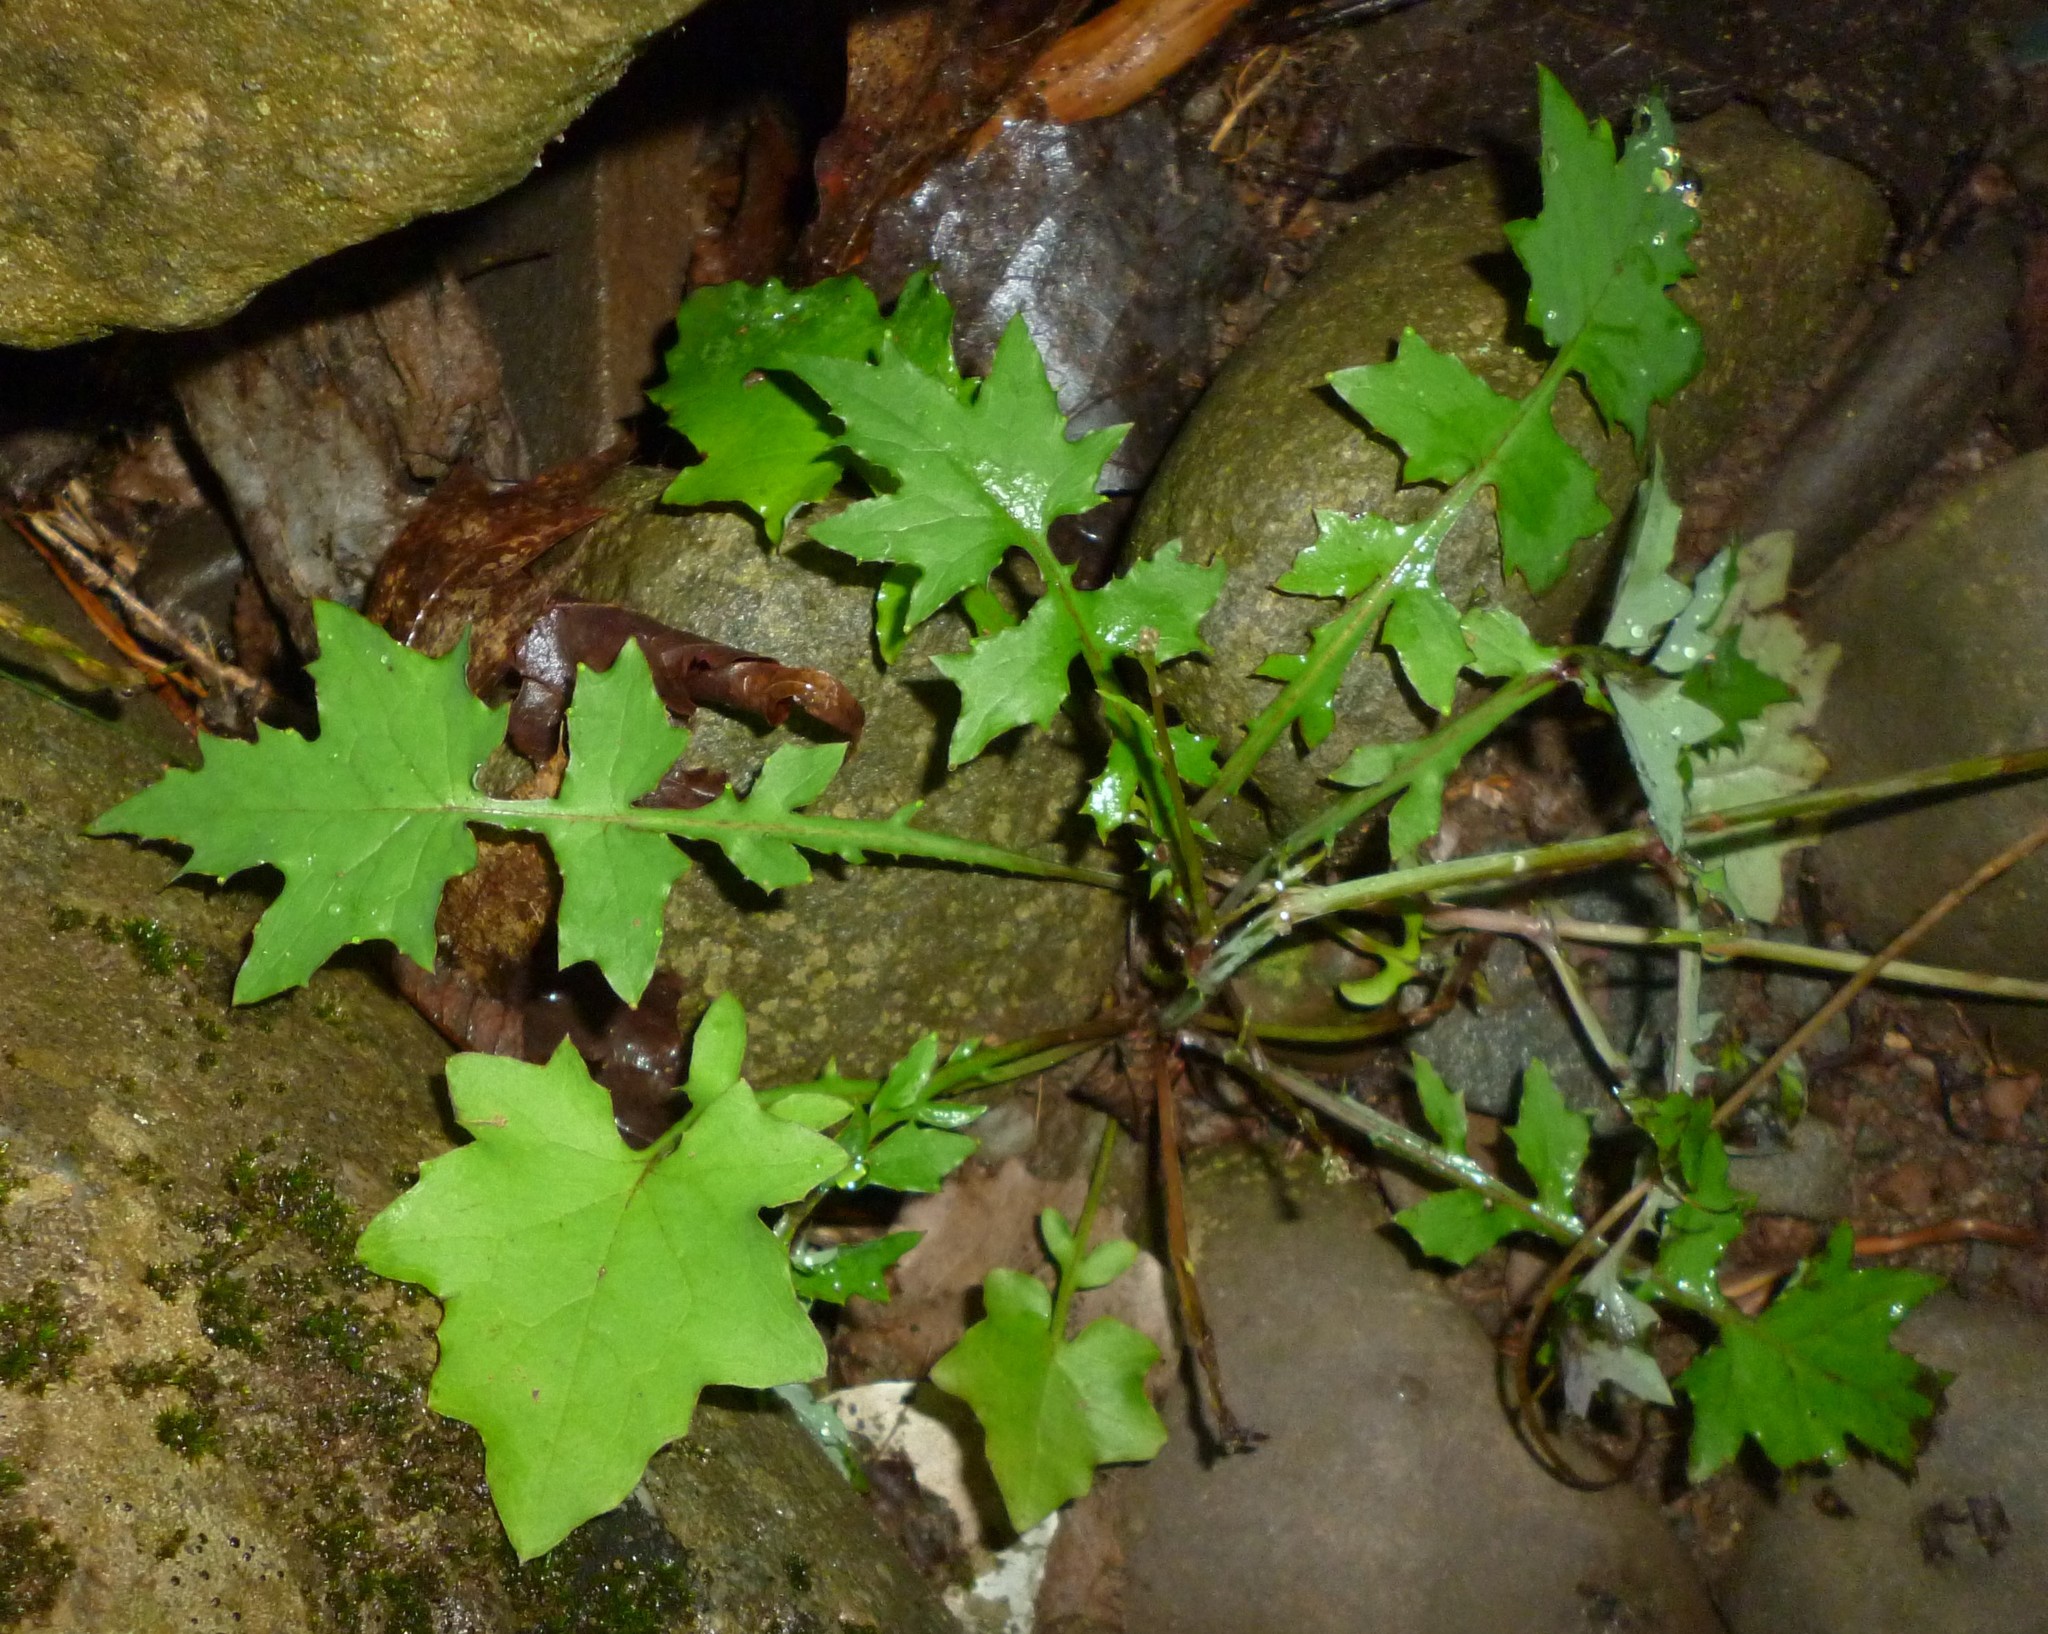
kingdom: Plantae
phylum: Tracheophyta
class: Magnoliopsida
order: Asterales
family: Asteraceae
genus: Mycelis
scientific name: Mycelis muralis
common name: Wall lettuce
